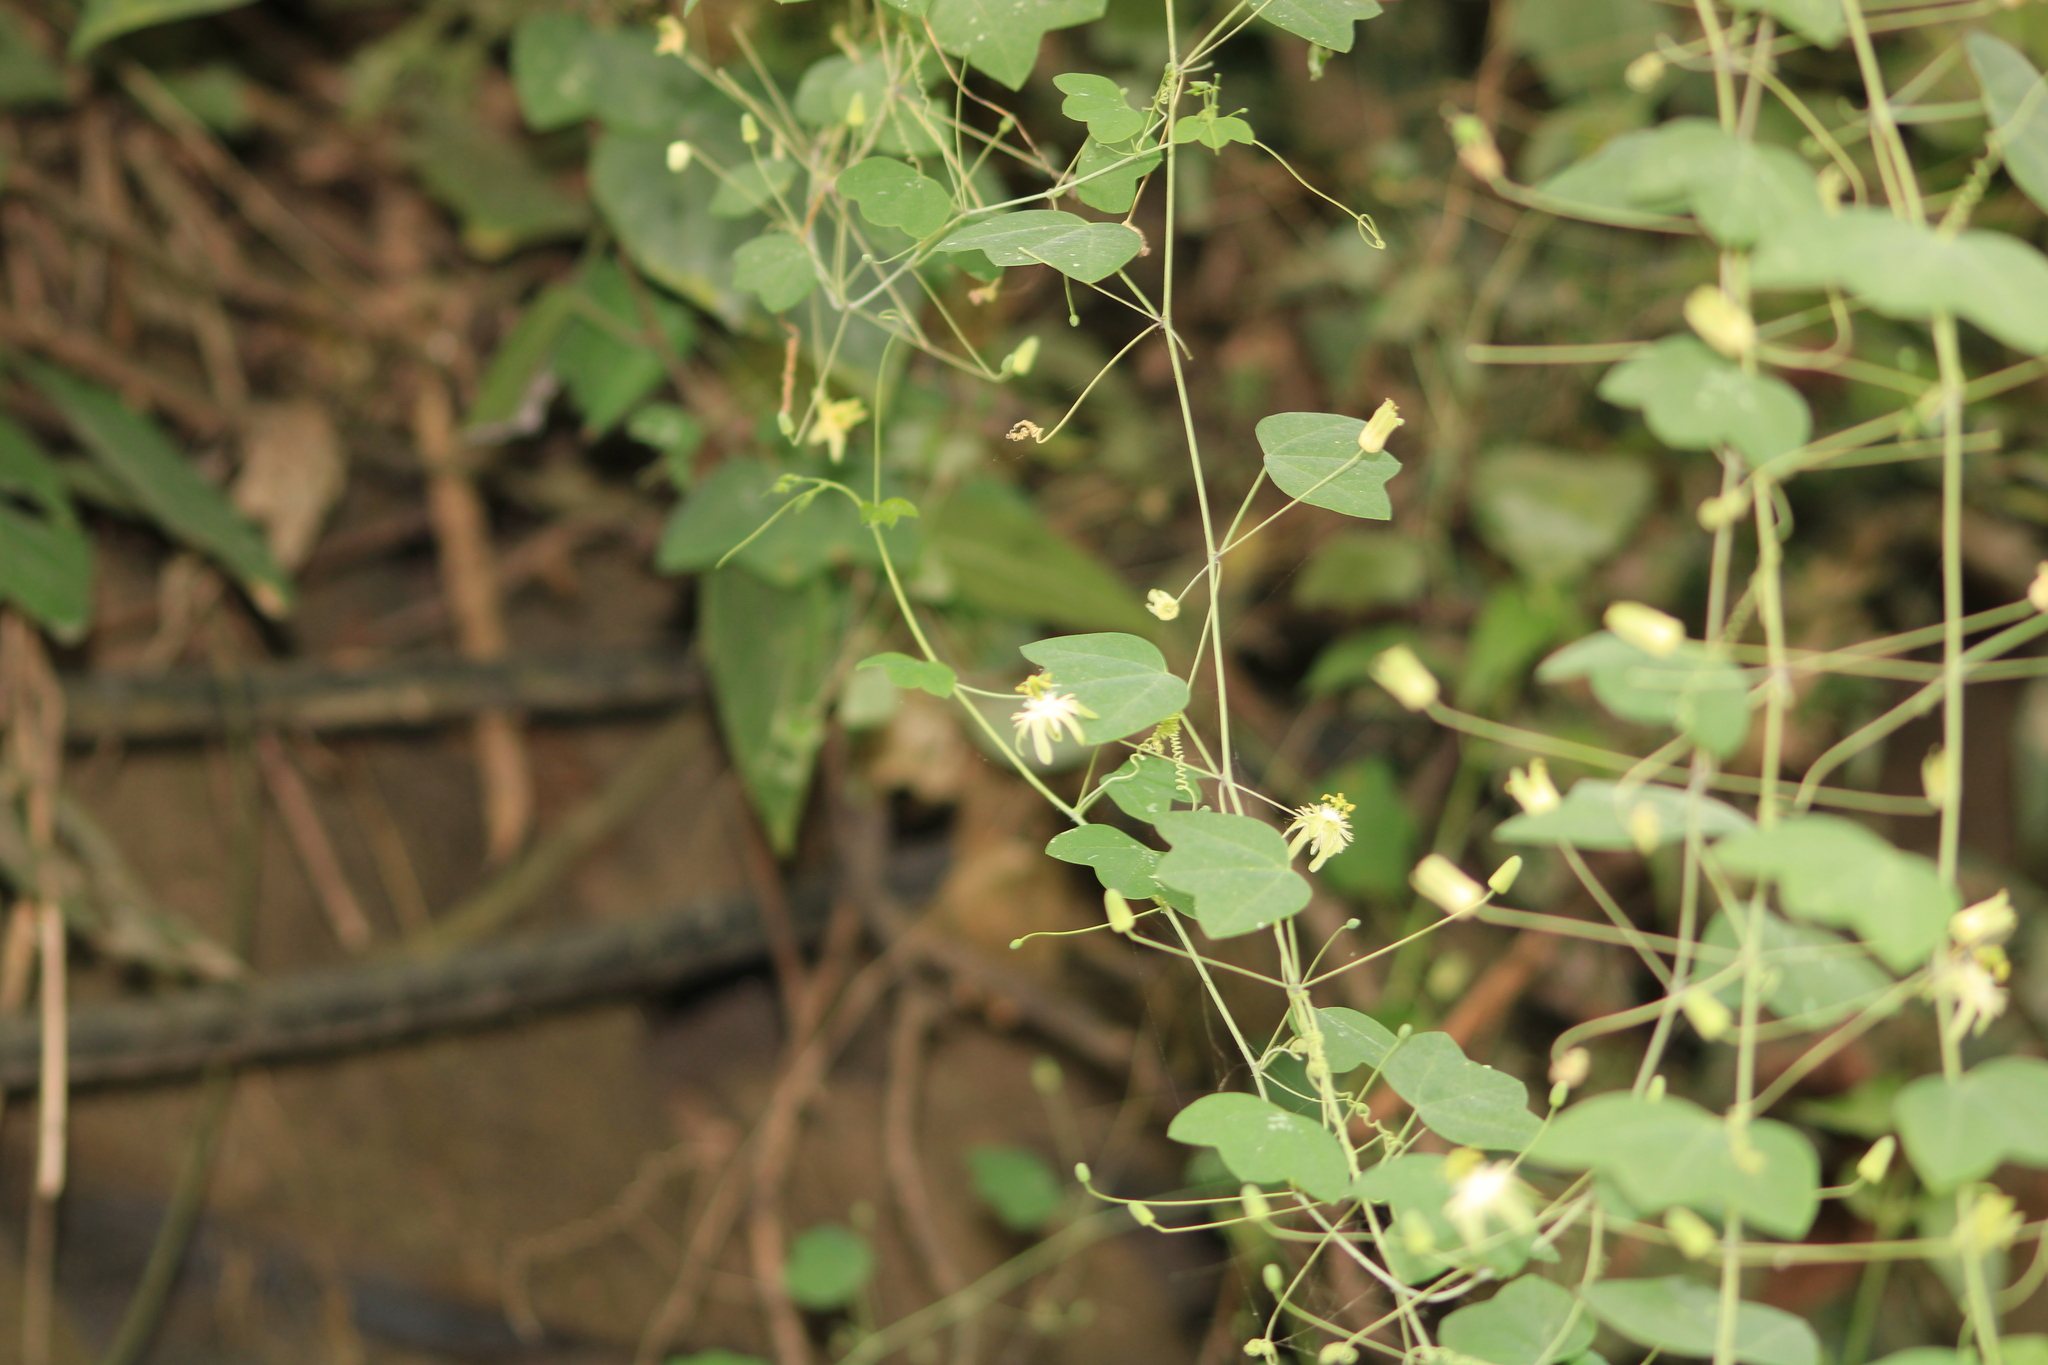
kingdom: Plantae
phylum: Tracheophyta
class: Magnoliopsida
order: Malpighiales
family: Passifloraceae
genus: Passiflora
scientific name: Passiflora filipes
